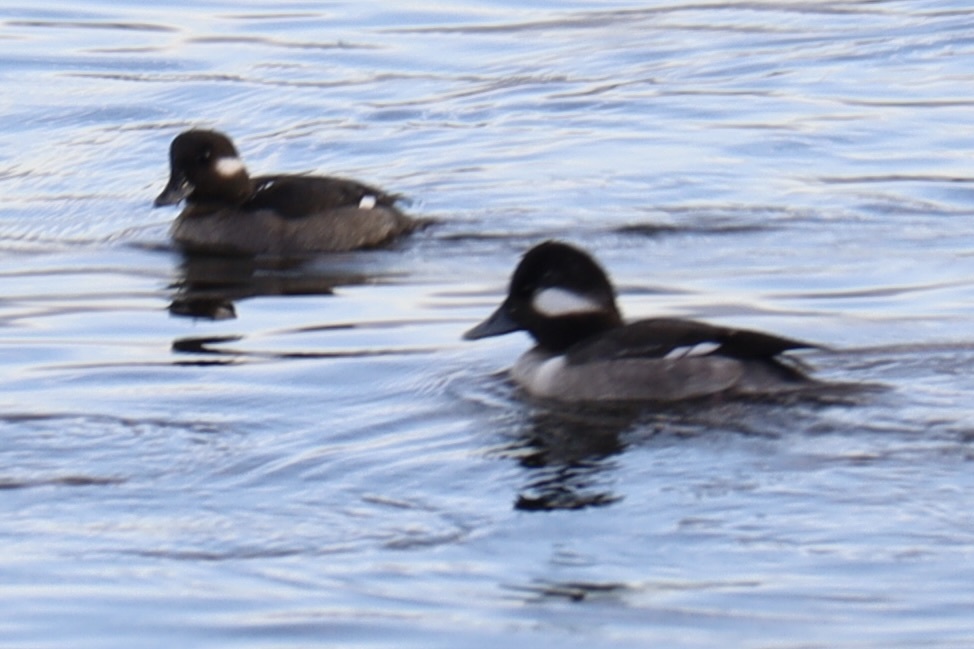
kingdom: Animalia
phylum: Chordata
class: Aves
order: Anseriformes
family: Anatidae
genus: Bucephala
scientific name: Bucephala albeola
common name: Bufflehead
